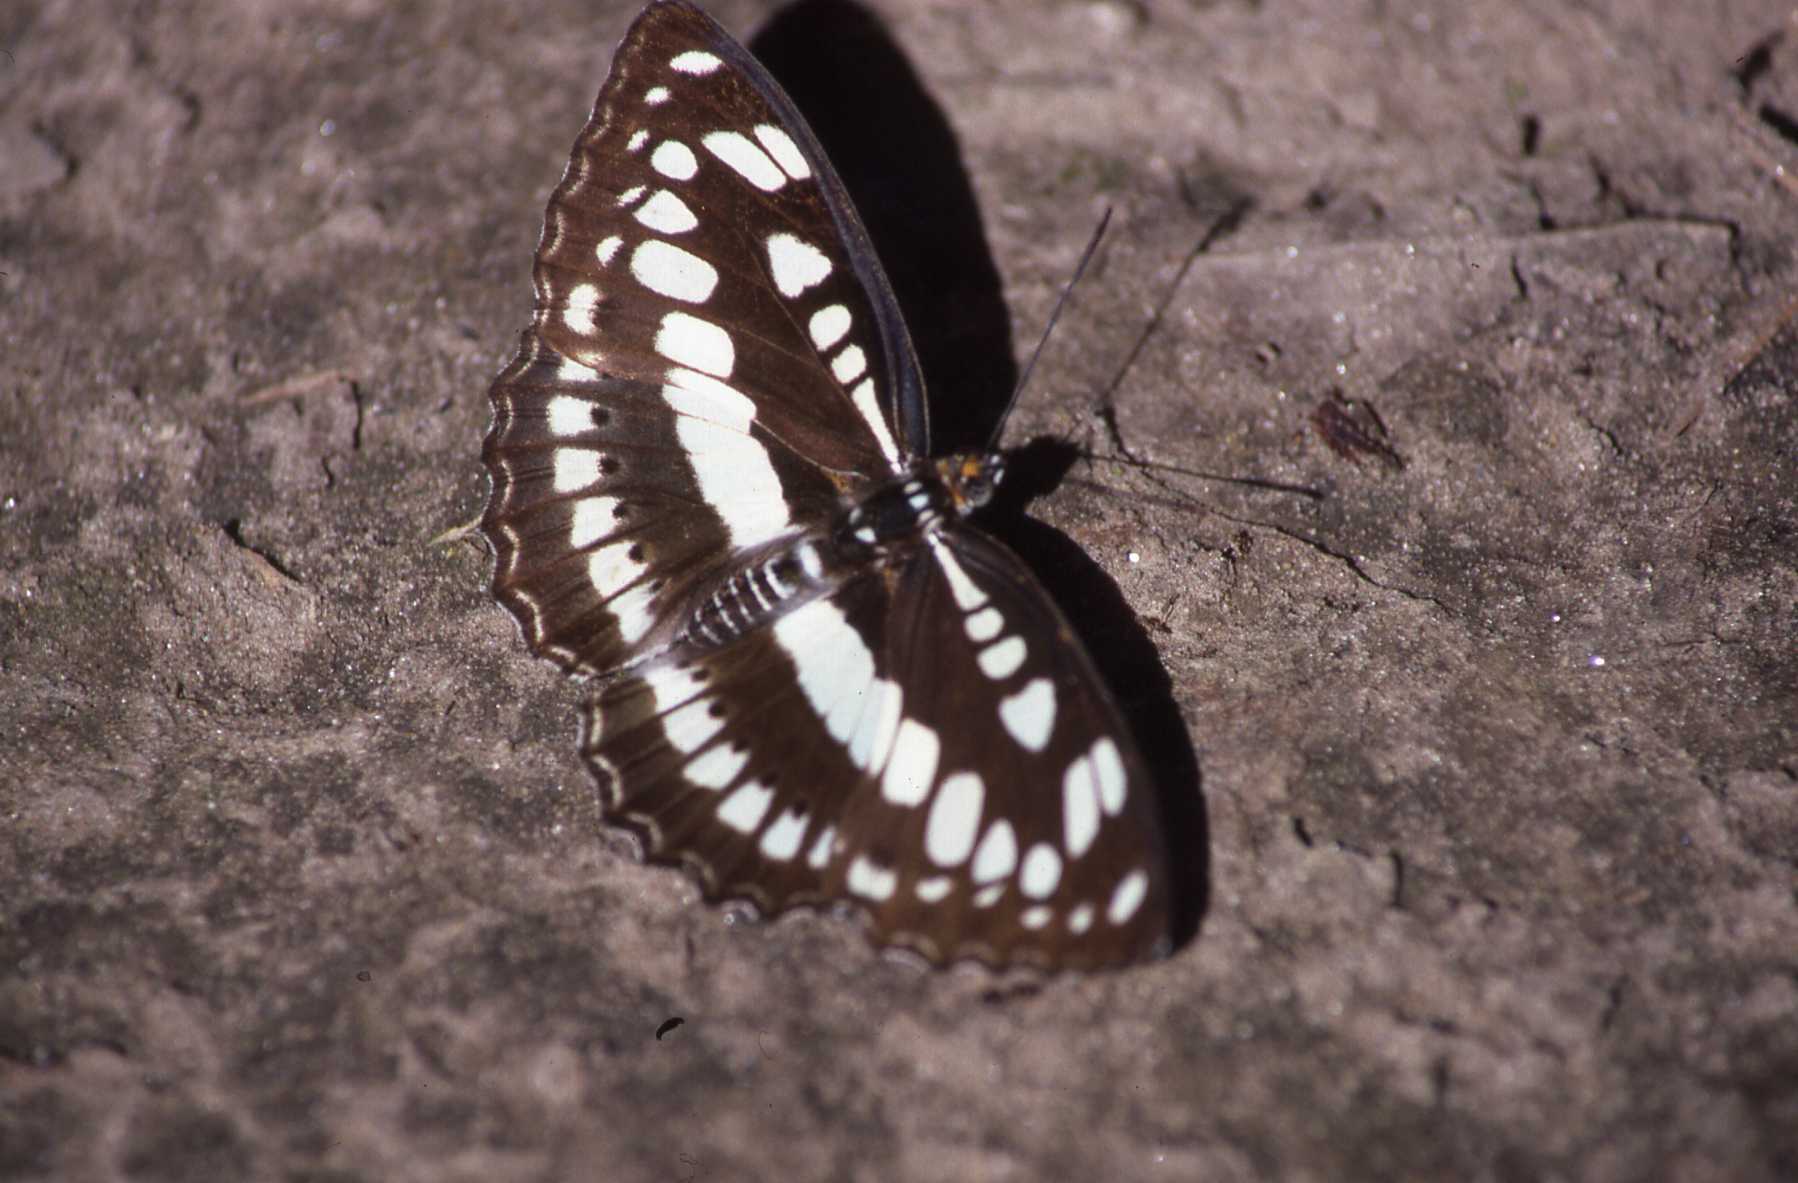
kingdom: Animalia
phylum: Arthropoda
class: Insecta
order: Lepidoptera
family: Nymphalidae
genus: Parathyma
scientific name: Parathyma perius
